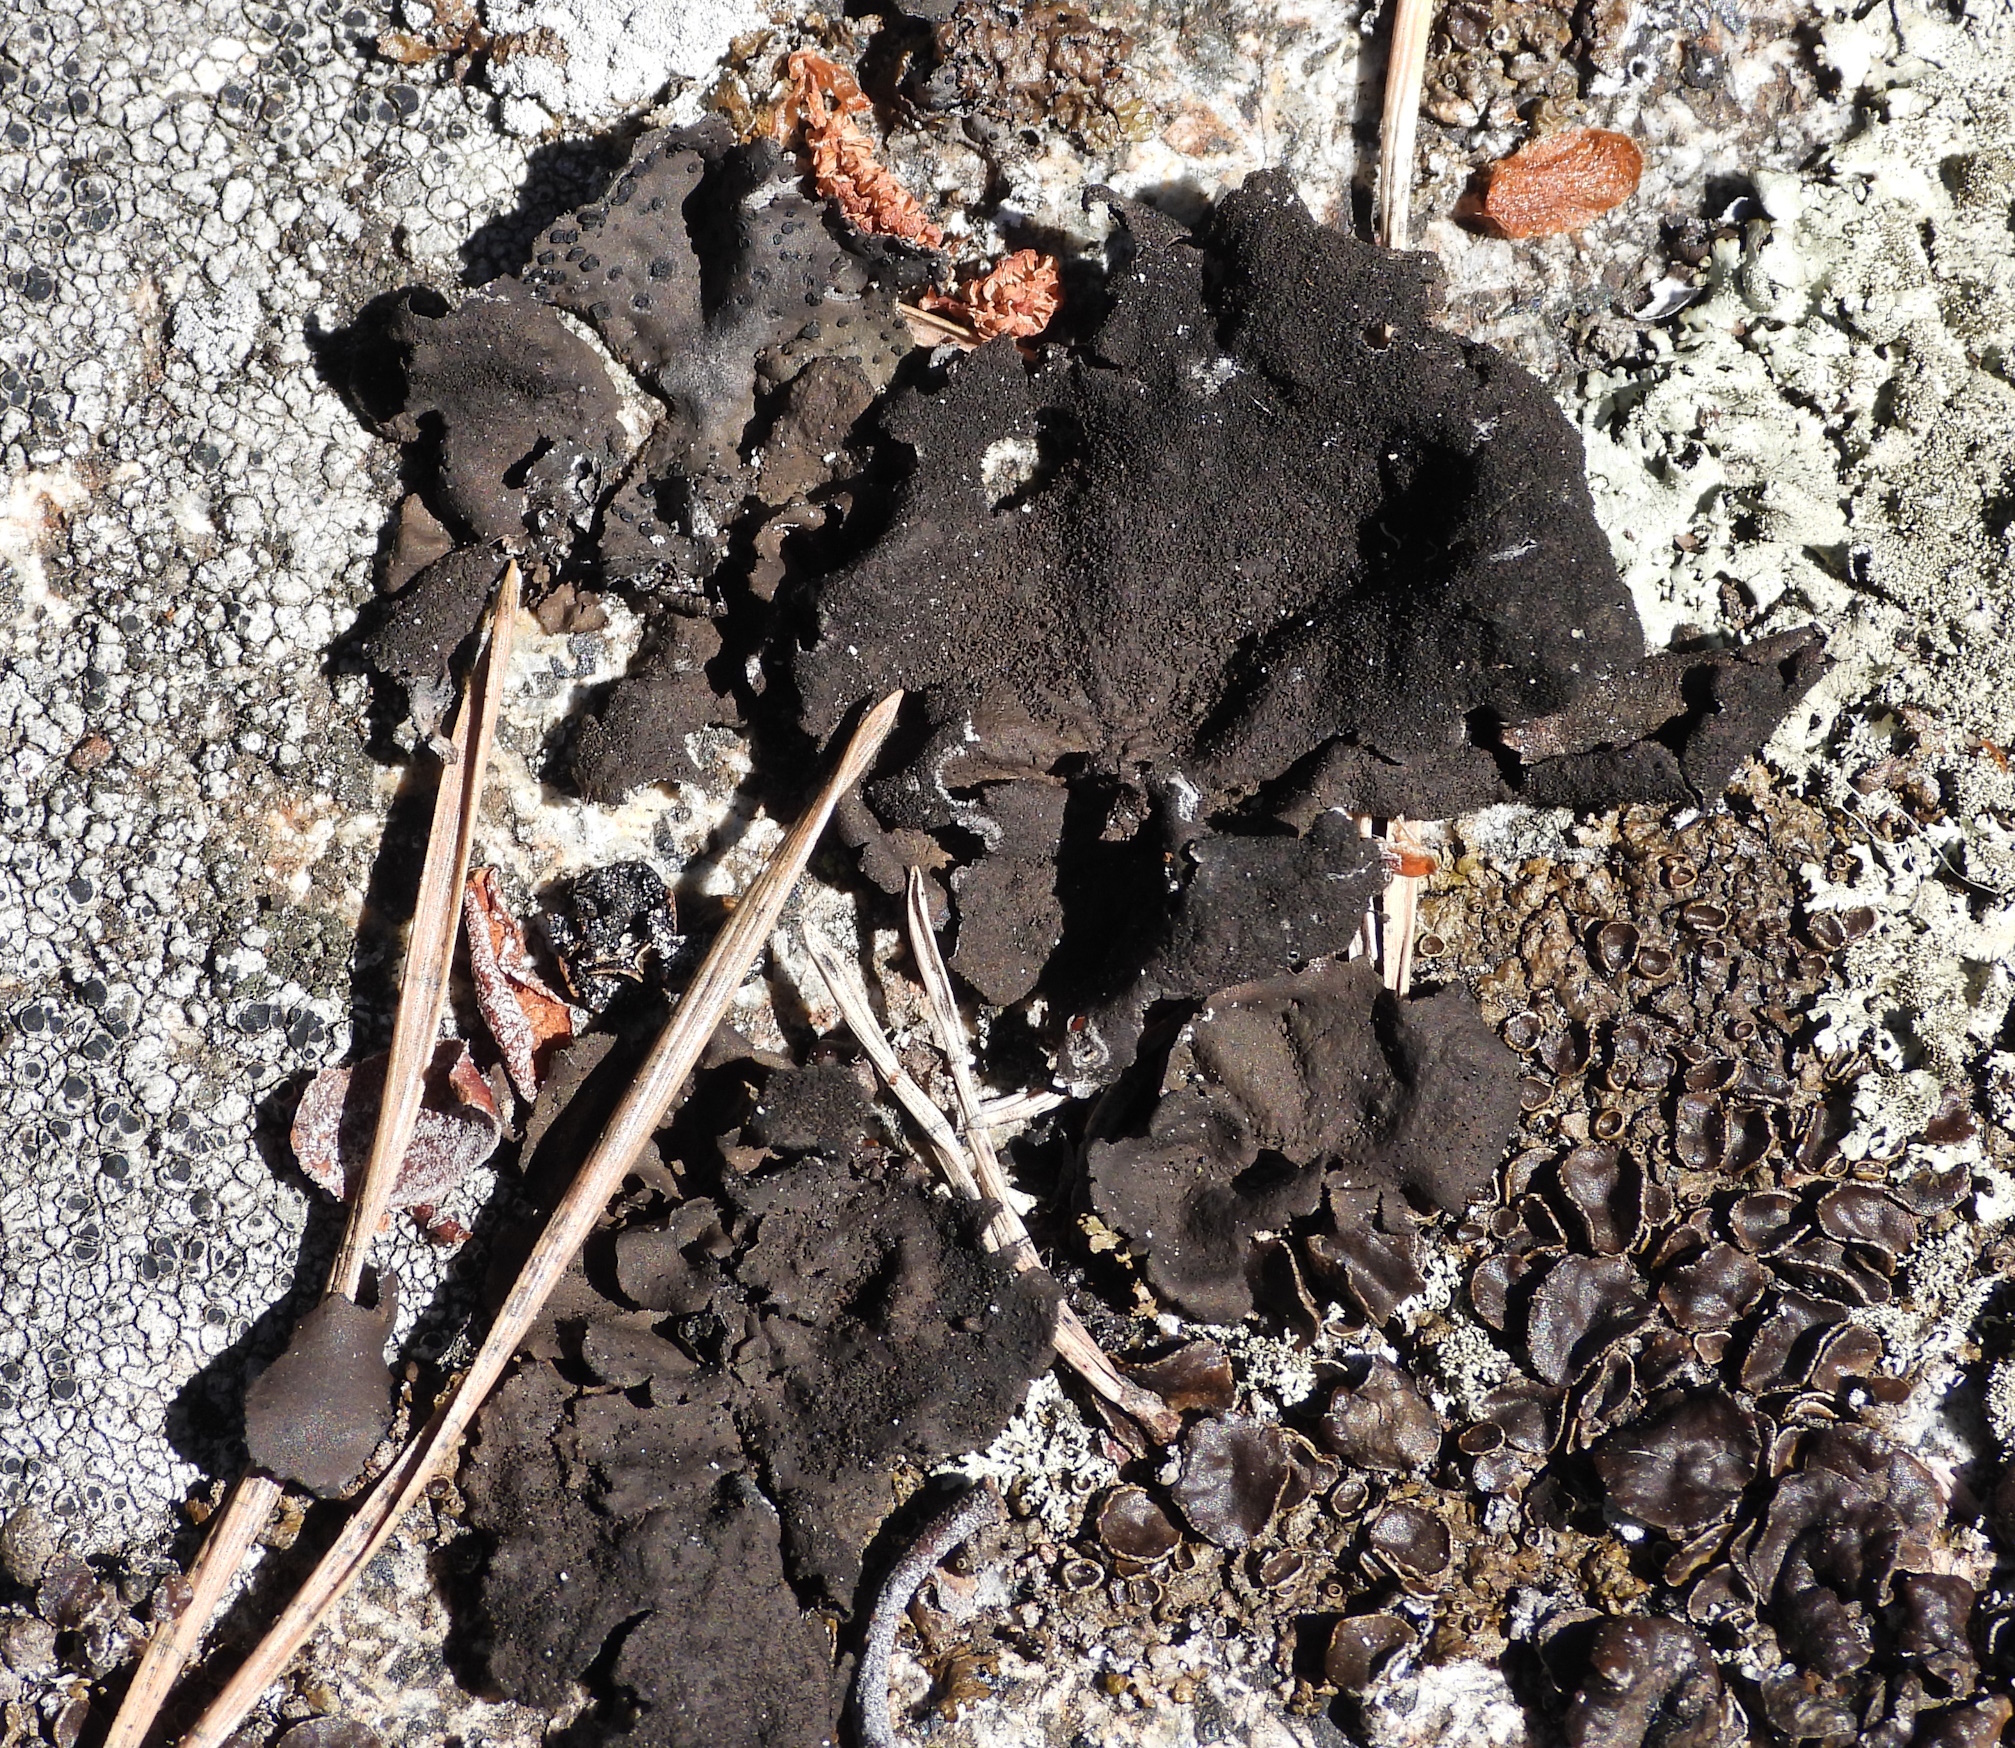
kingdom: Fungi
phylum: Ascomycota
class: Lecanoromycetes
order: Umbilicariales
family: Umbilicariaceae
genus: Umbilicaria
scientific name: Umbilicaria deusta
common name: Peppered rock tripe
